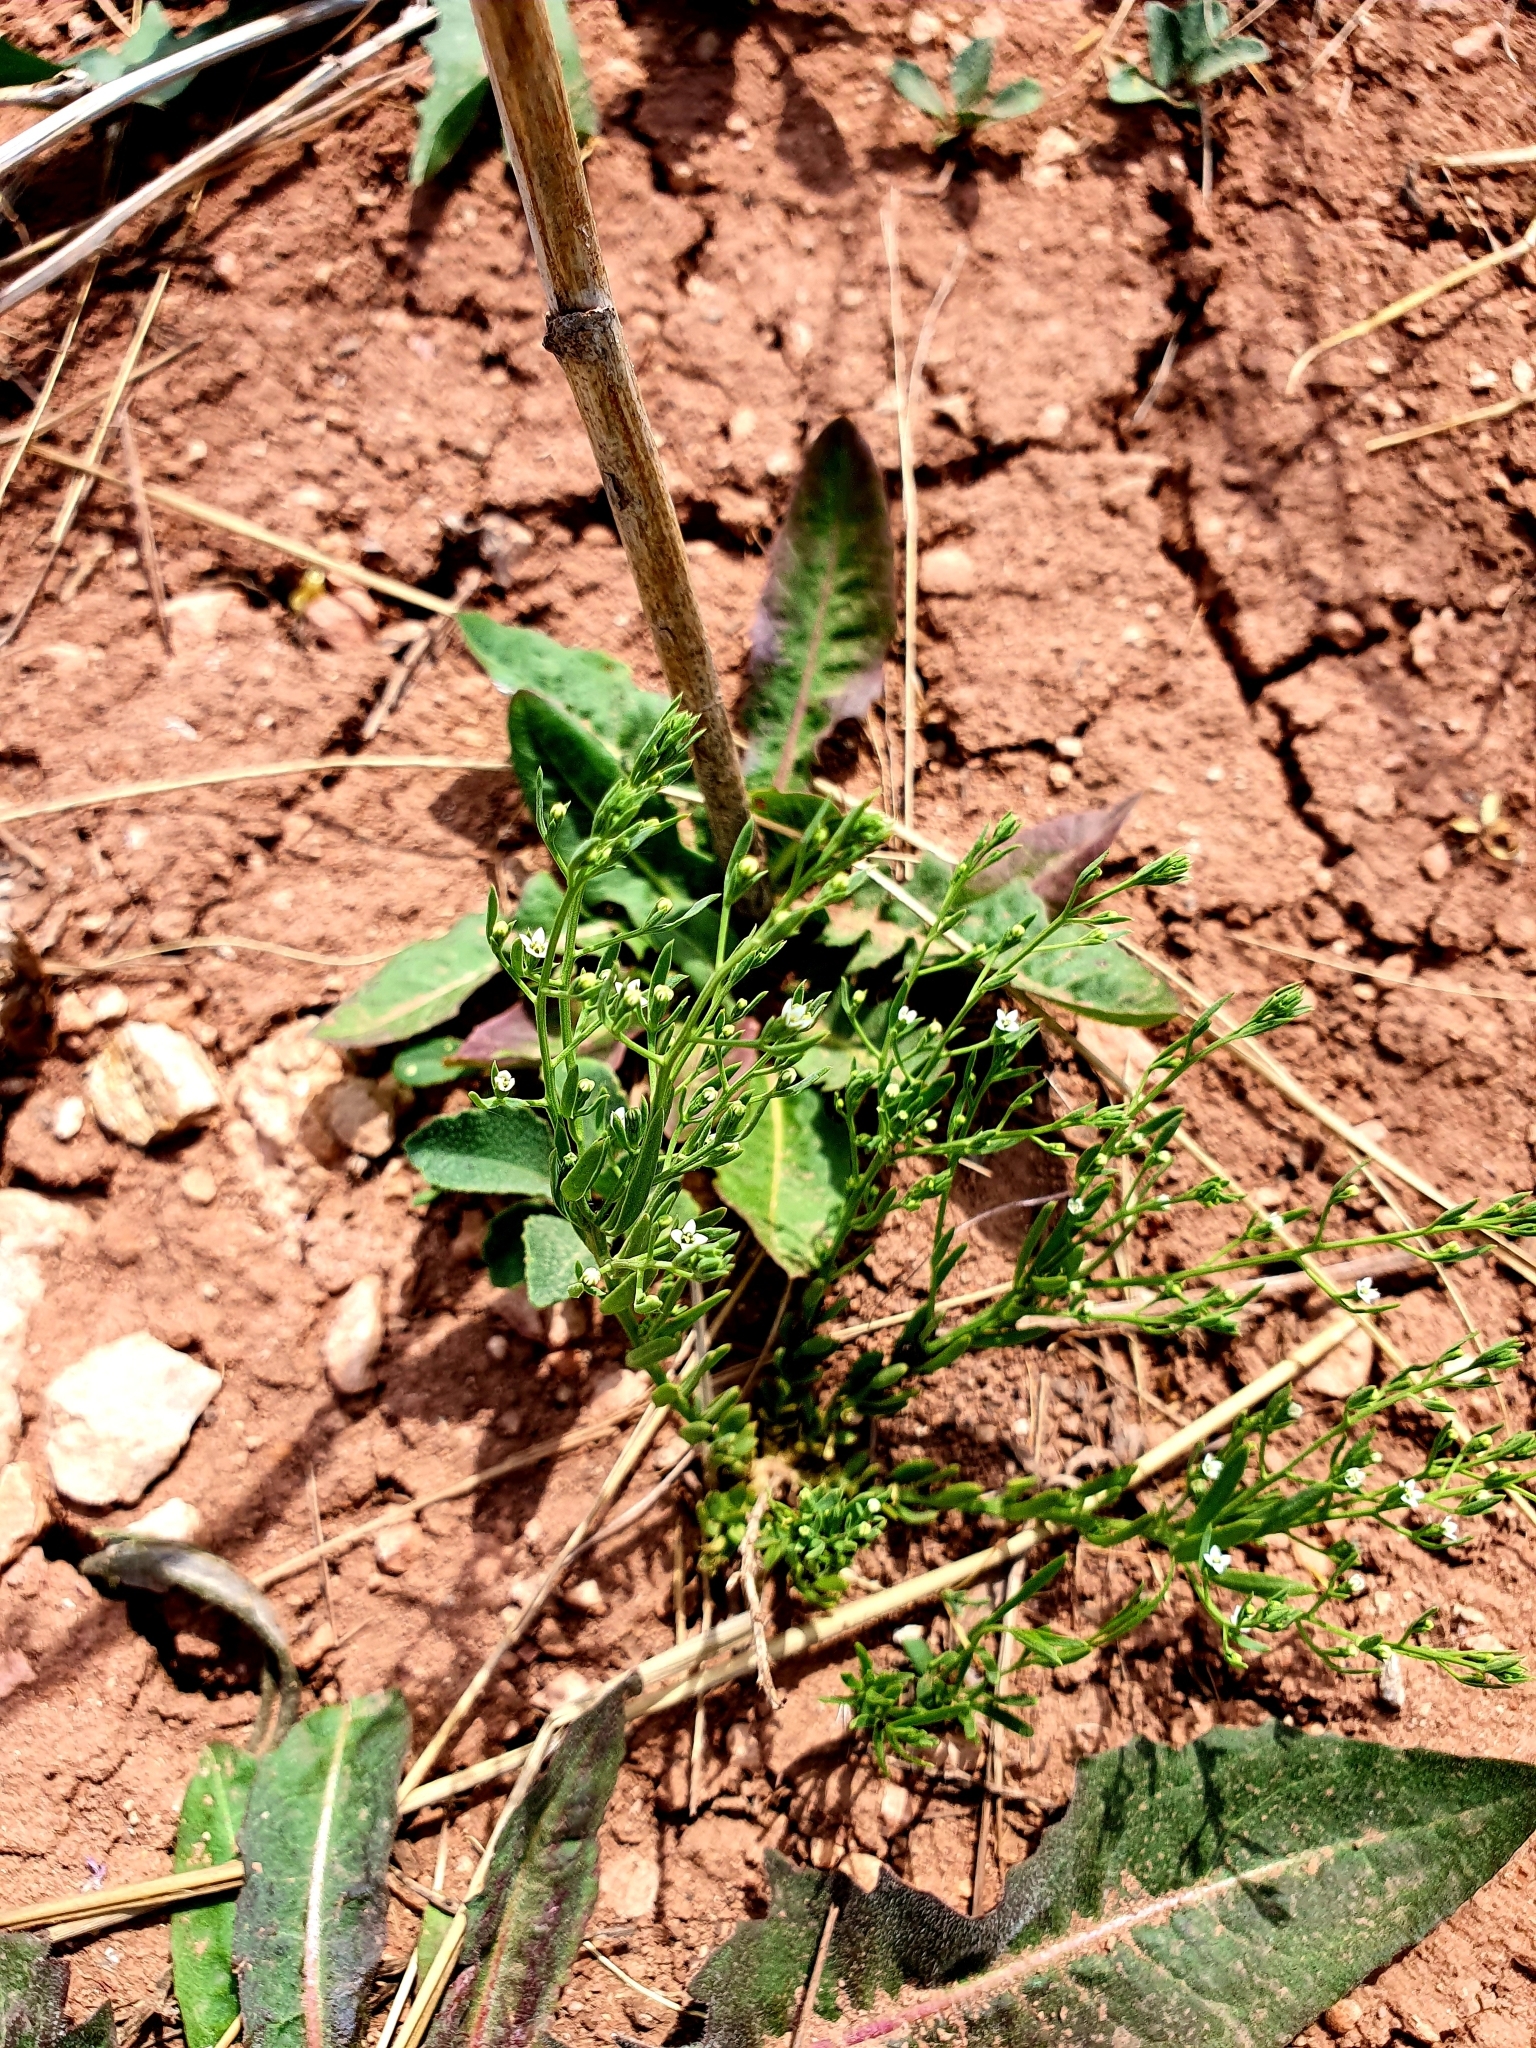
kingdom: Plantae
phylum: Tracheophyta
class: Magnoliopsida
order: Santalales
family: Thesiaceae
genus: Thesium
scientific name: Thesium ramosum
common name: Field thesium
